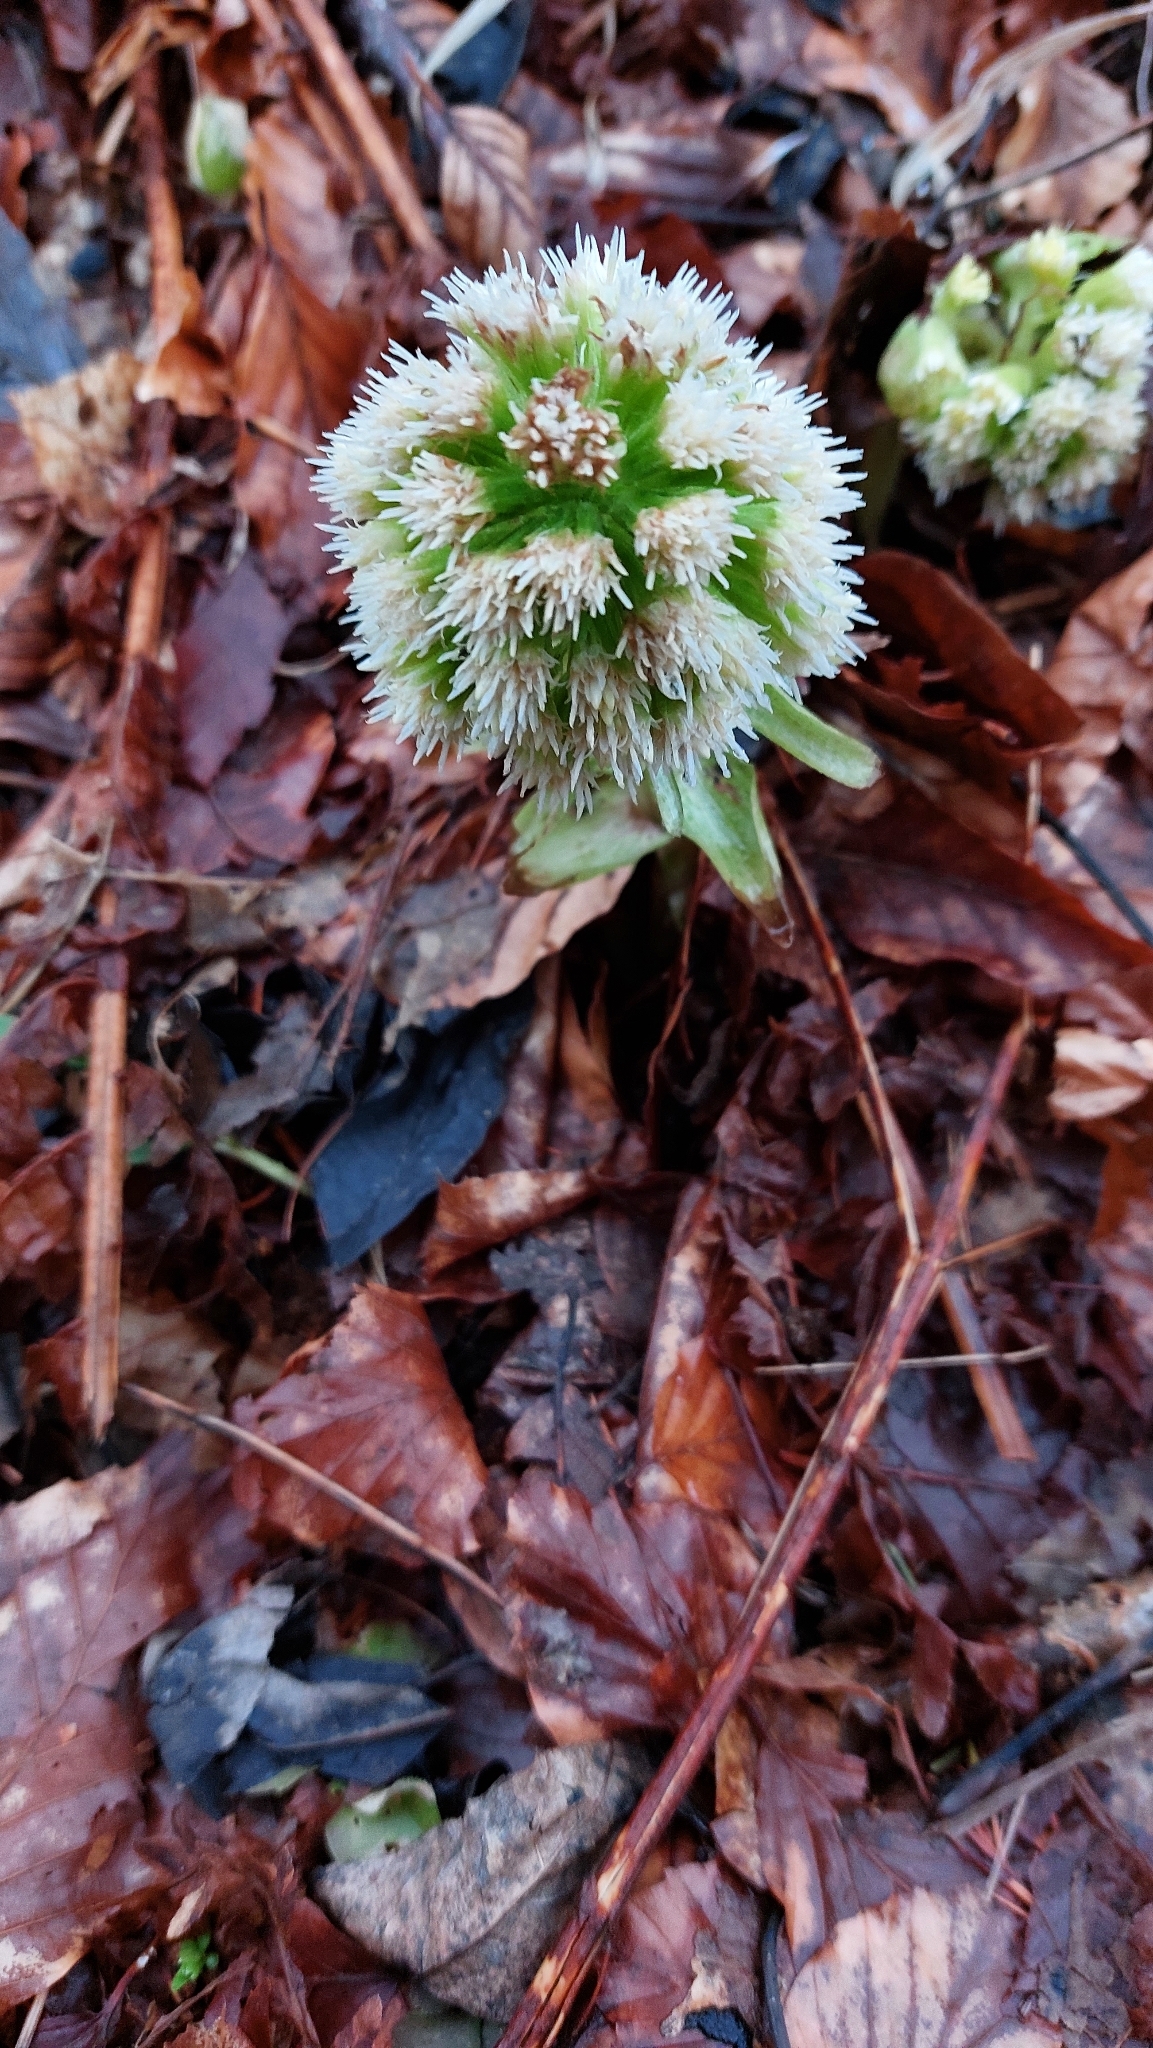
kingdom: Plantae
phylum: Tracheophyta
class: Magnoliopsida
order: Asterales
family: Asteraceae
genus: Petasites
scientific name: Petasites albus
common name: White butterbur
